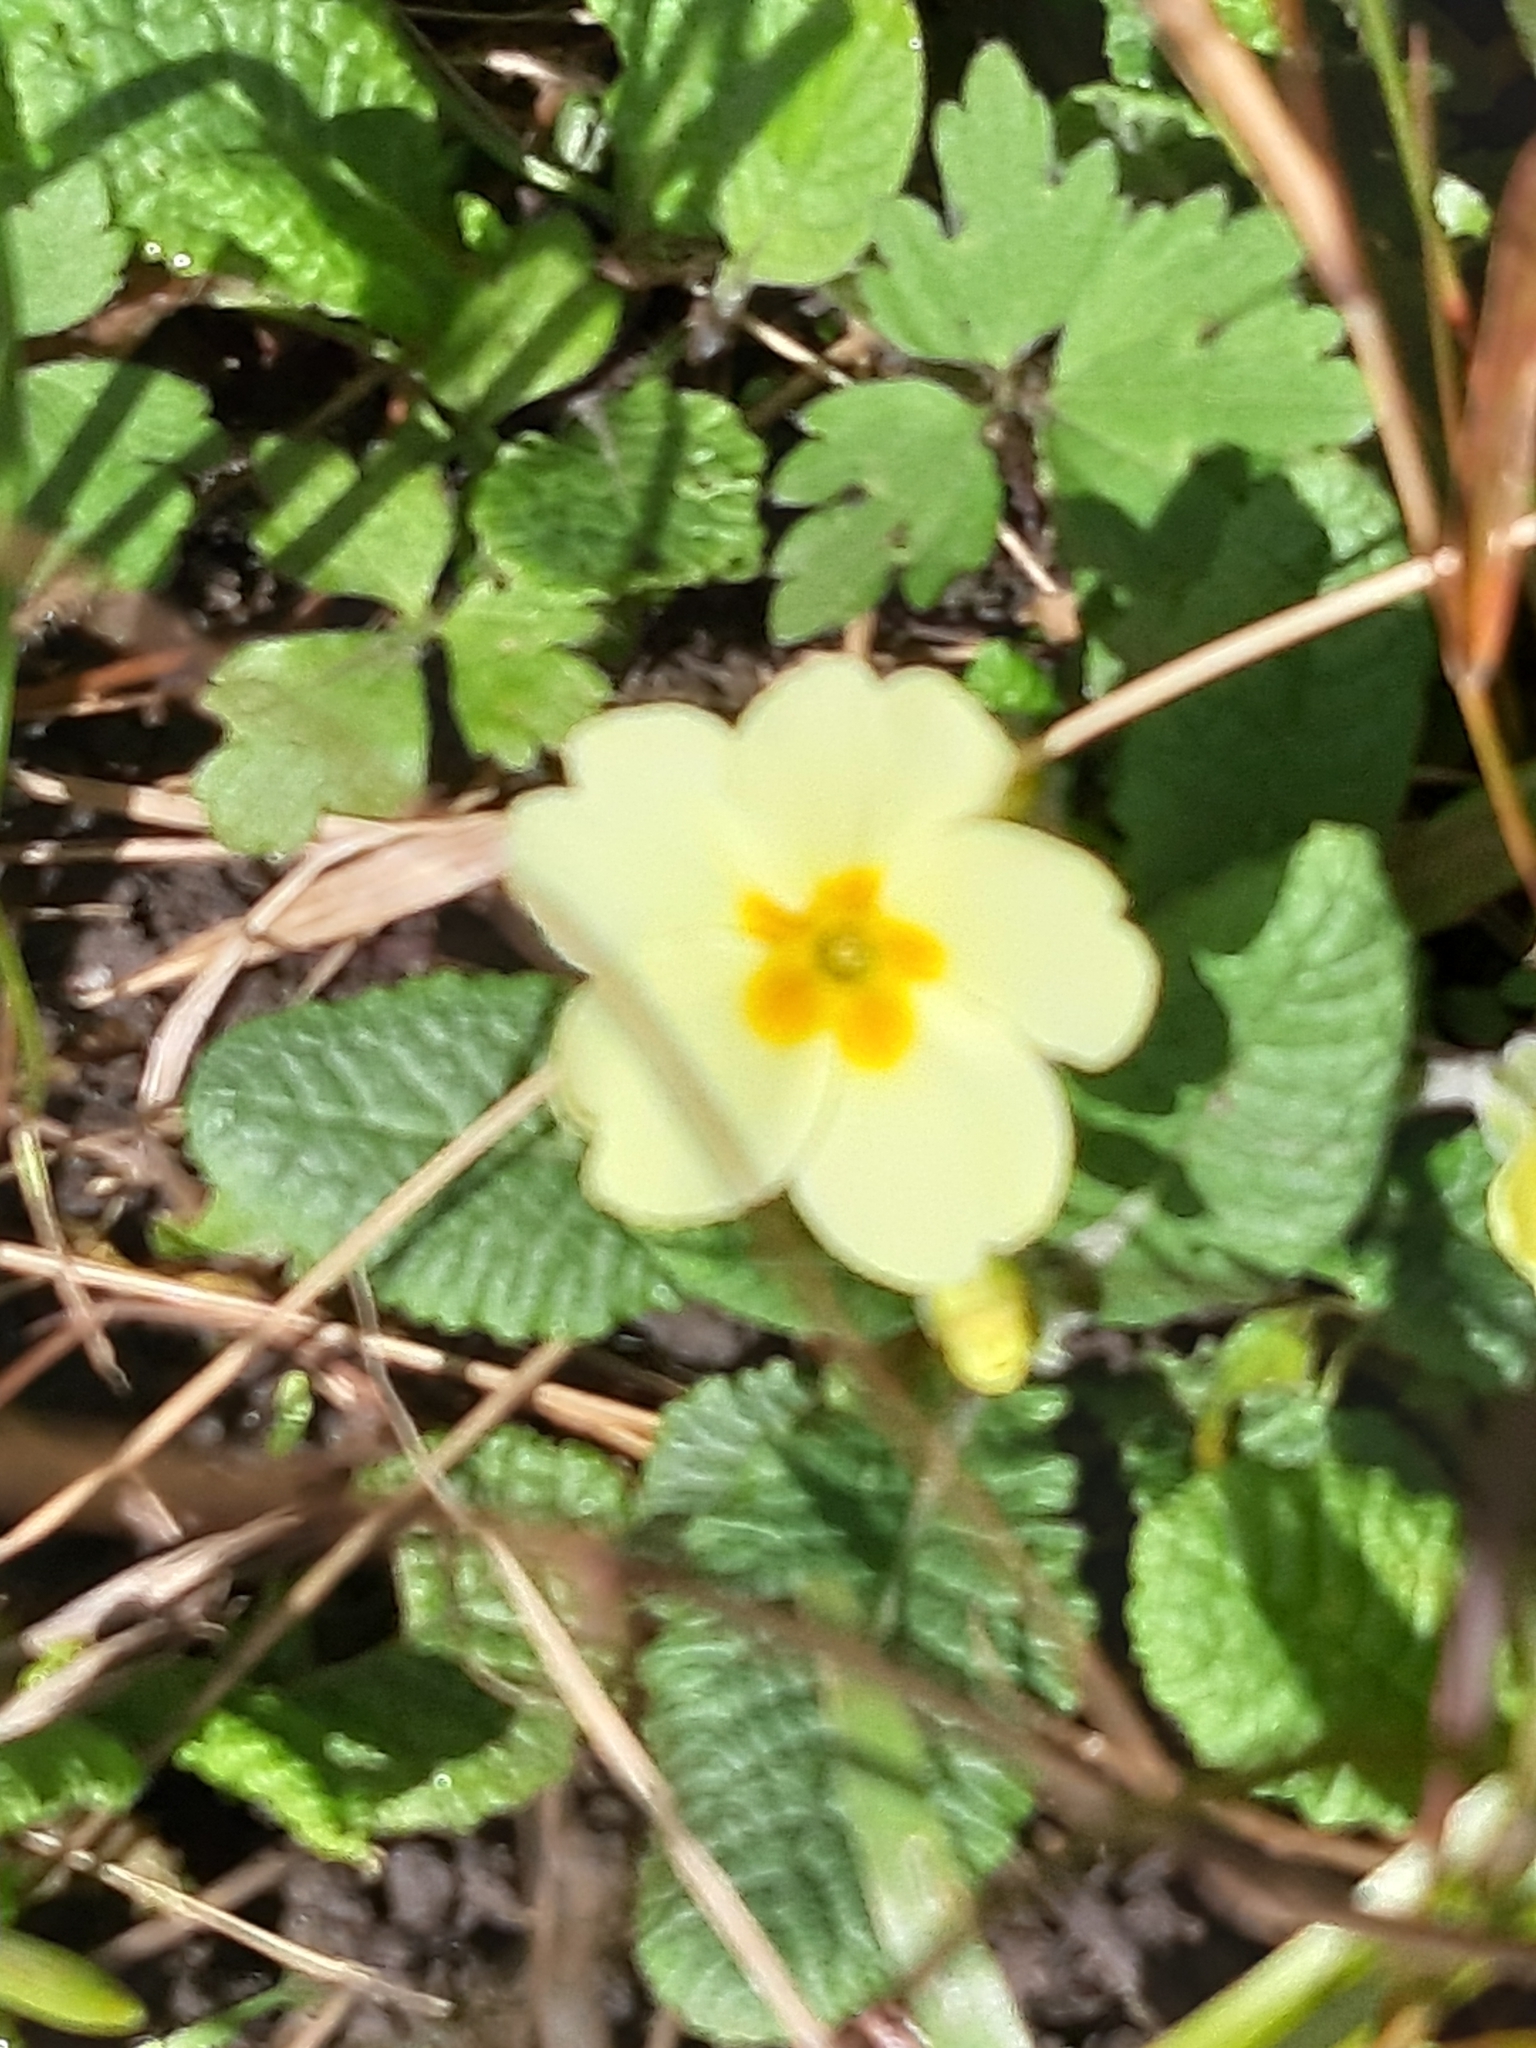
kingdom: Plantae
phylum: Tracheophyta
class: Magnoliopsida
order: Ericales
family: Primulaceae
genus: Primula
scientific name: Primula vulgaris
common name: Primrose
